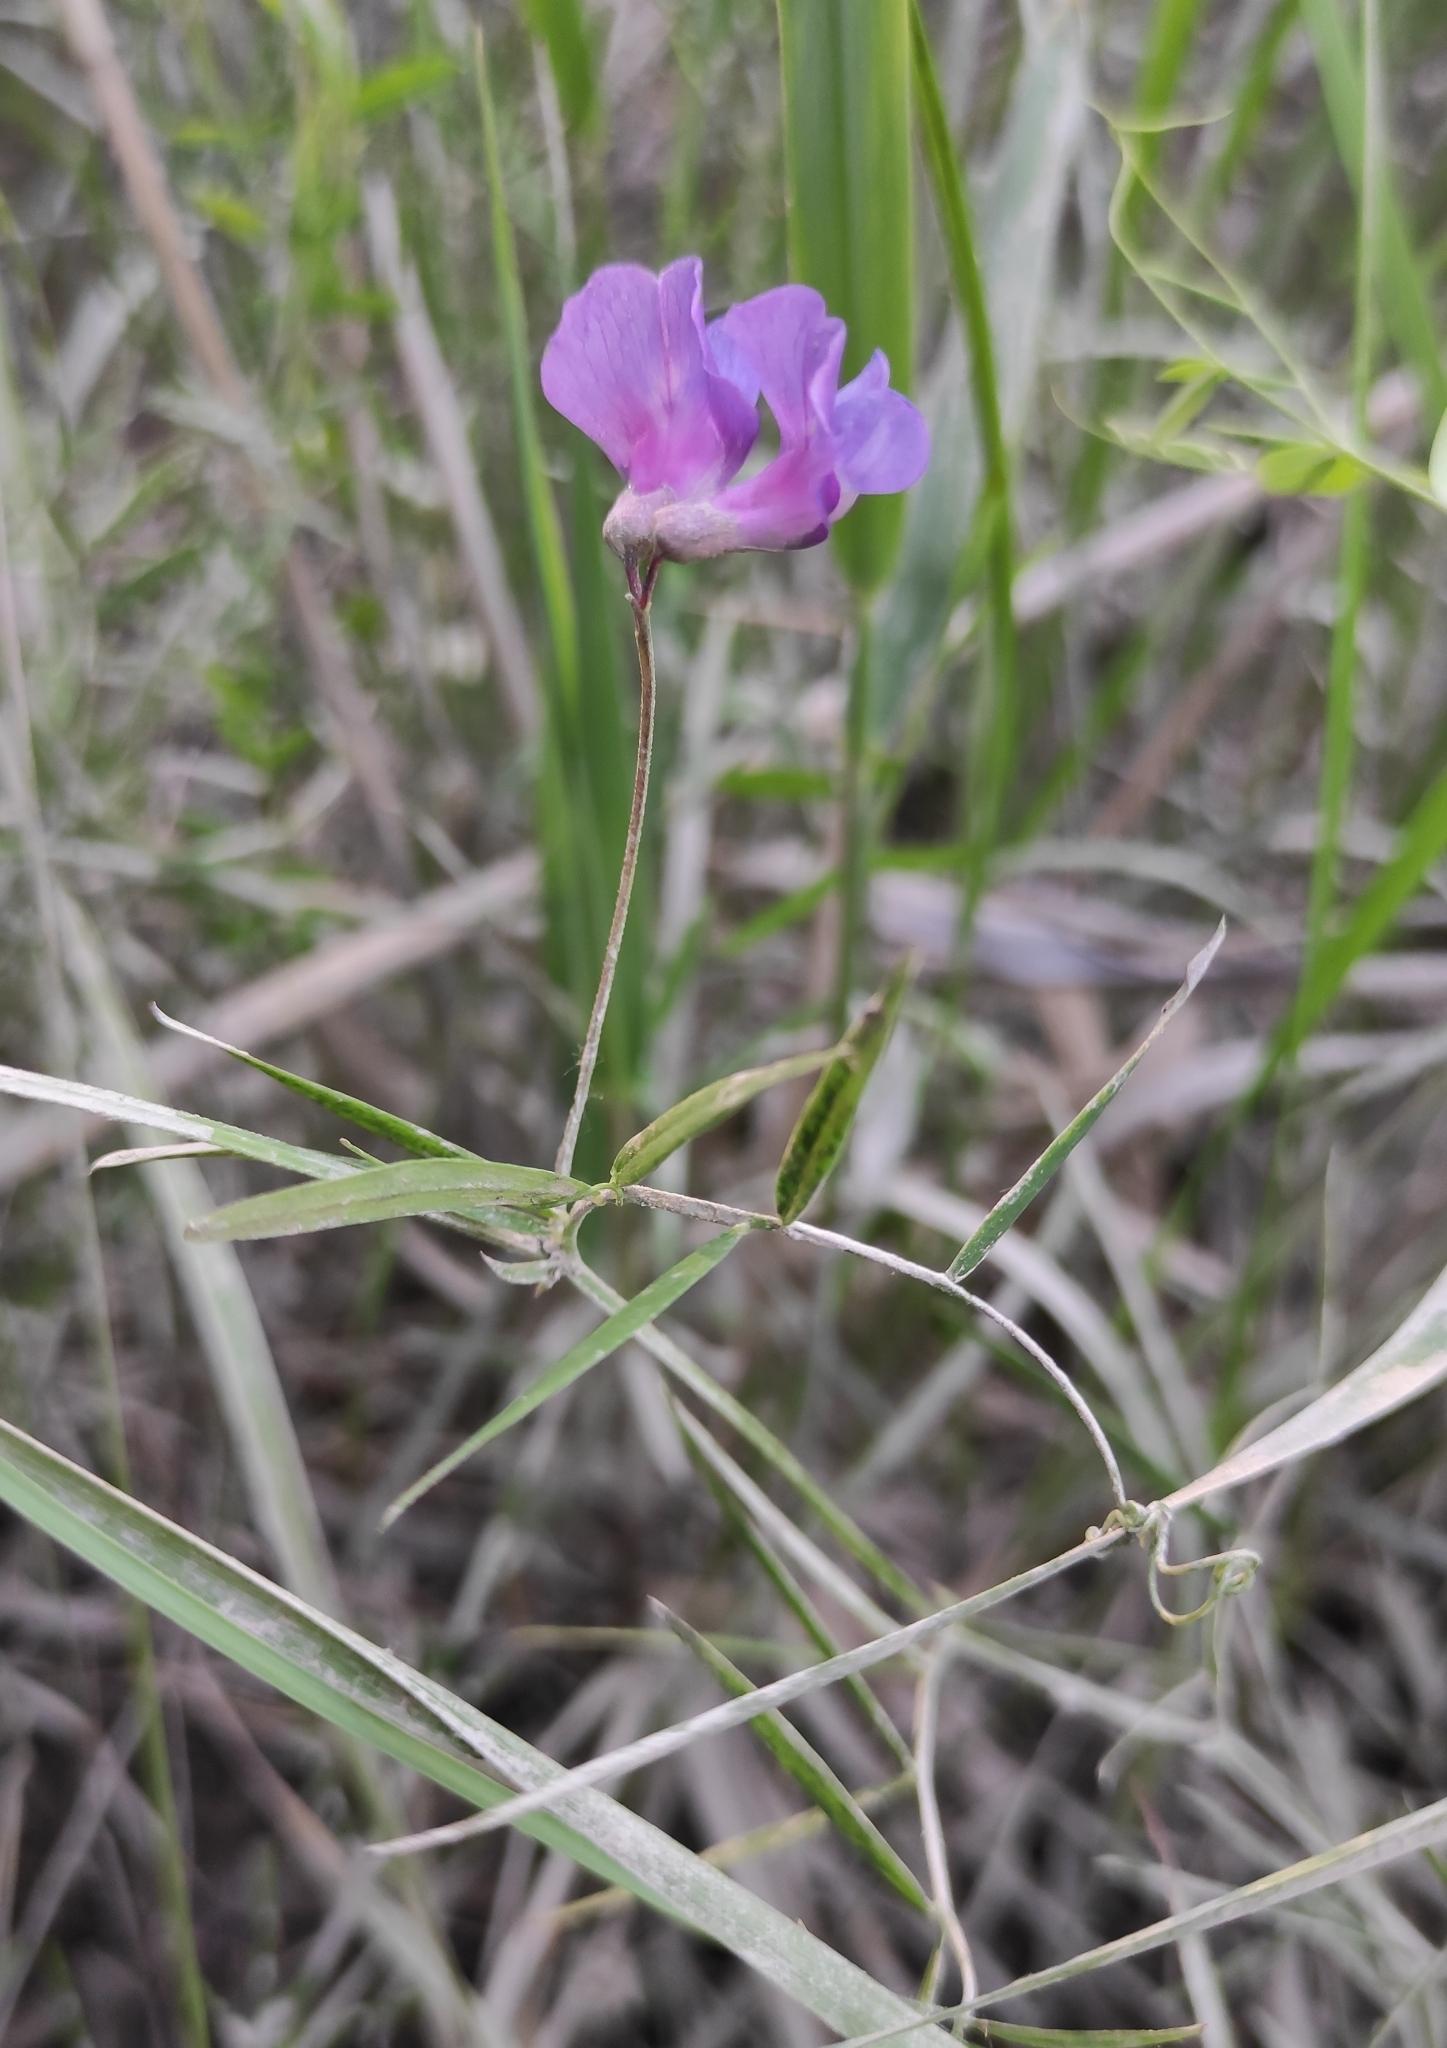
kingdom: Plantae
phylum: Tracheophyta
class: Magnoliopsida
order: Fabales
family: Fabaceae
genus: Lathyrus
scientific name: Lathyrus palustris
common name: Marsh pea
